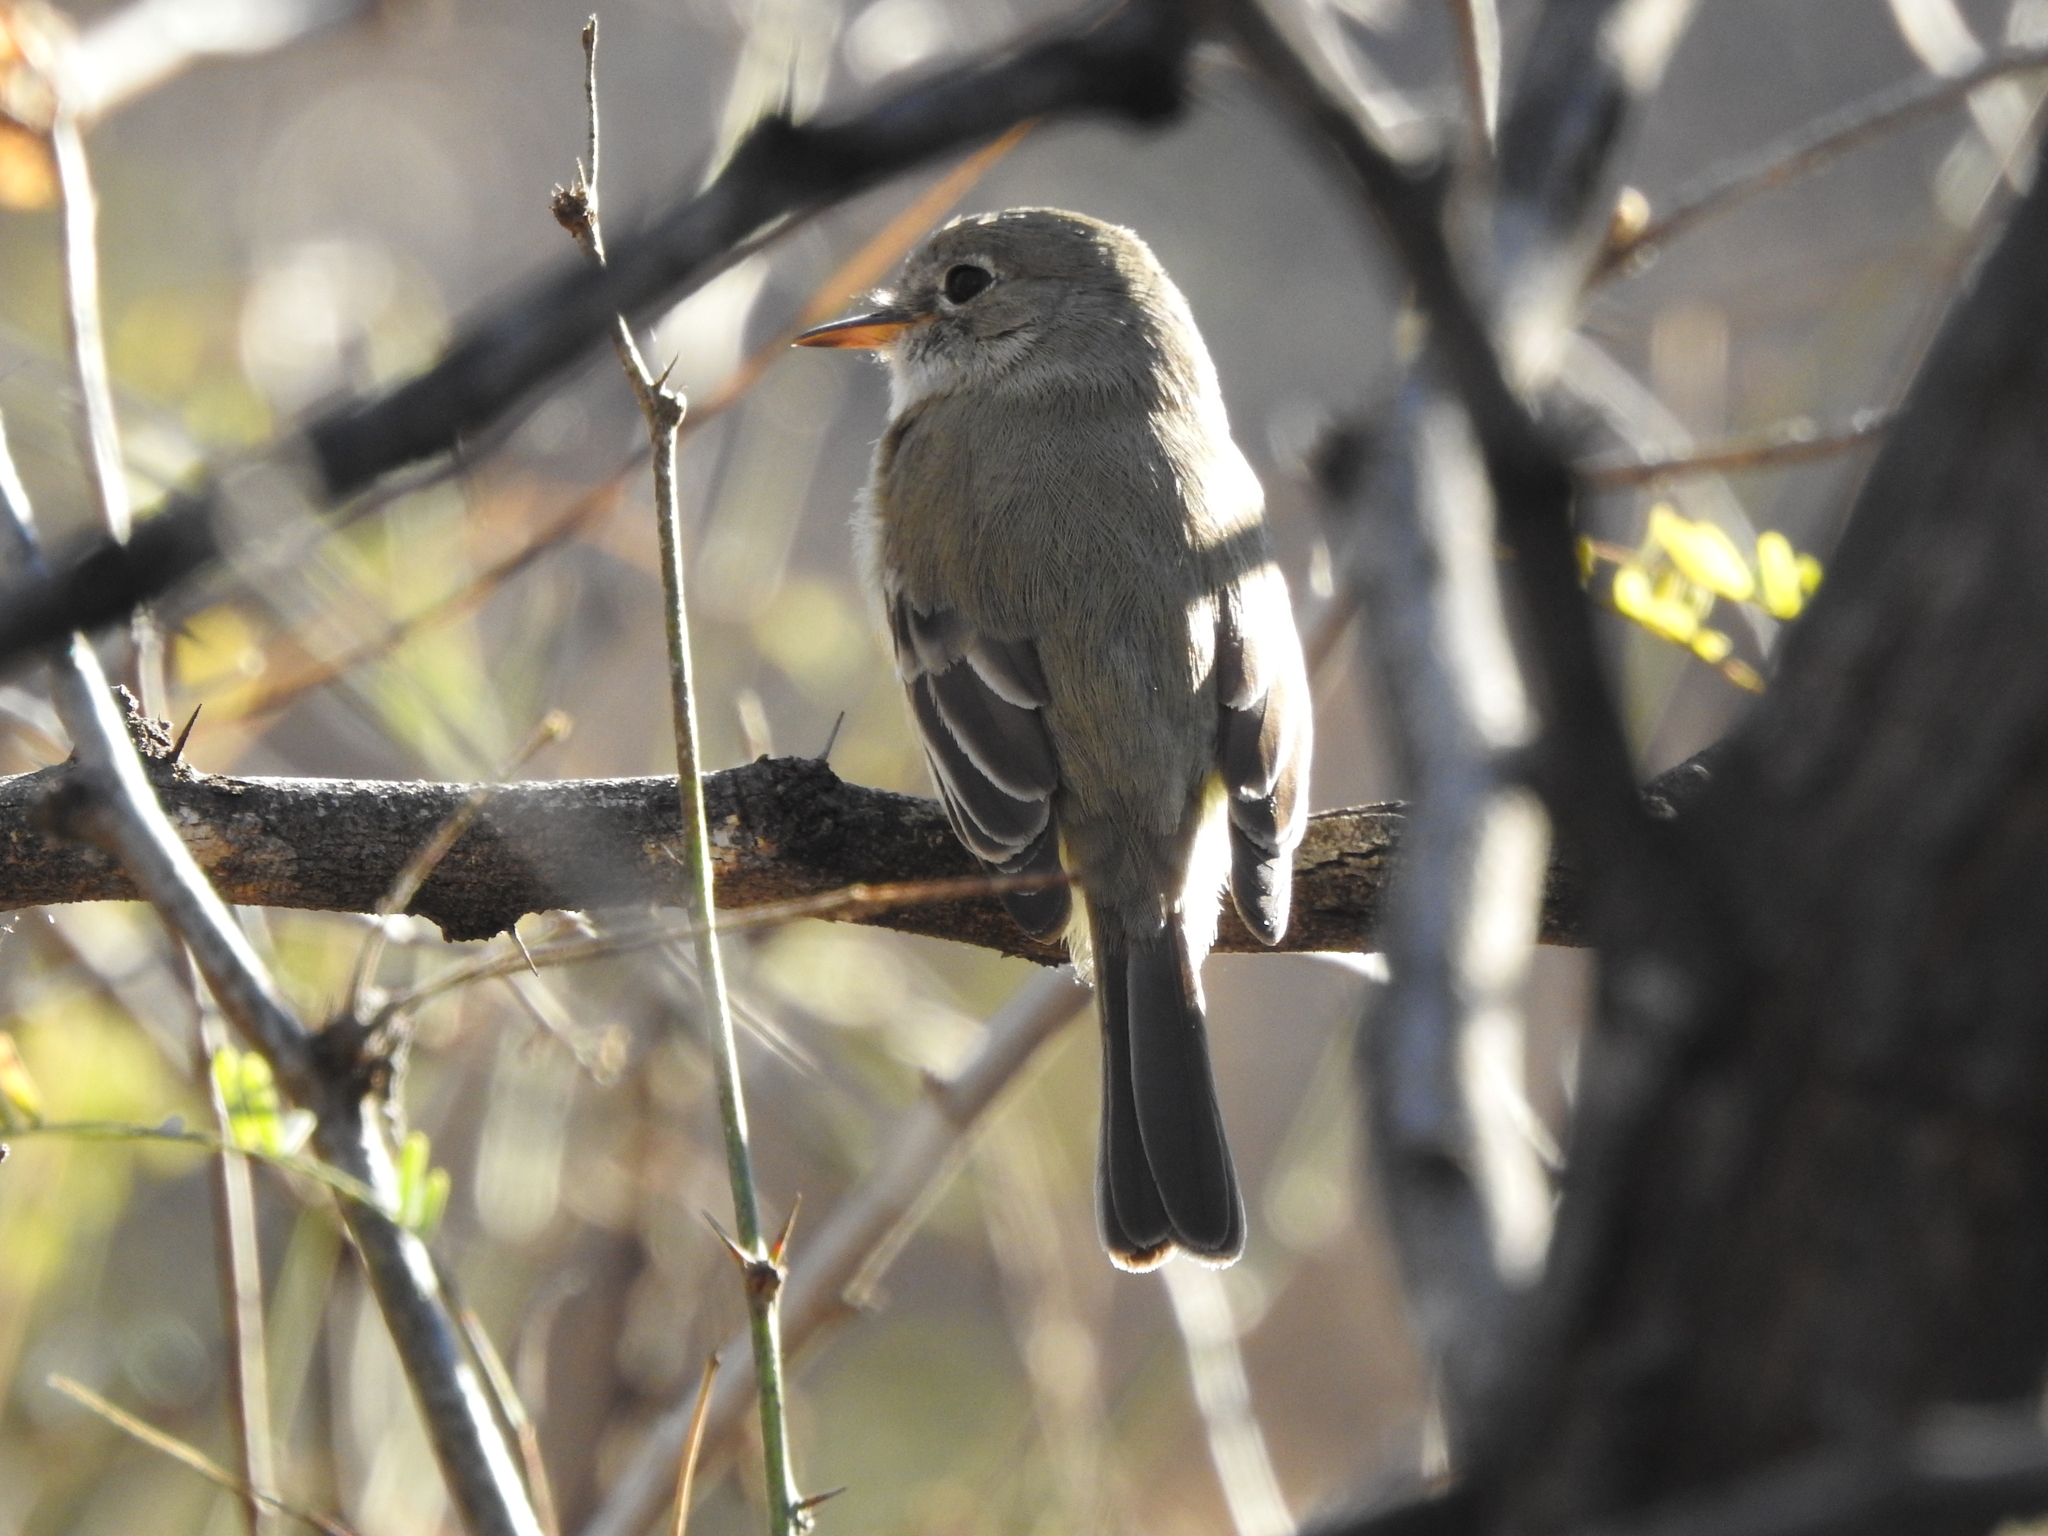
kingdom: Animalia
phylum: Chordata
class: Aves
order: Passeriformes
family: Tyrannidae
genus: Empidonax
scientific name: Empidonax wrightii
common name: Gray flycatcher
